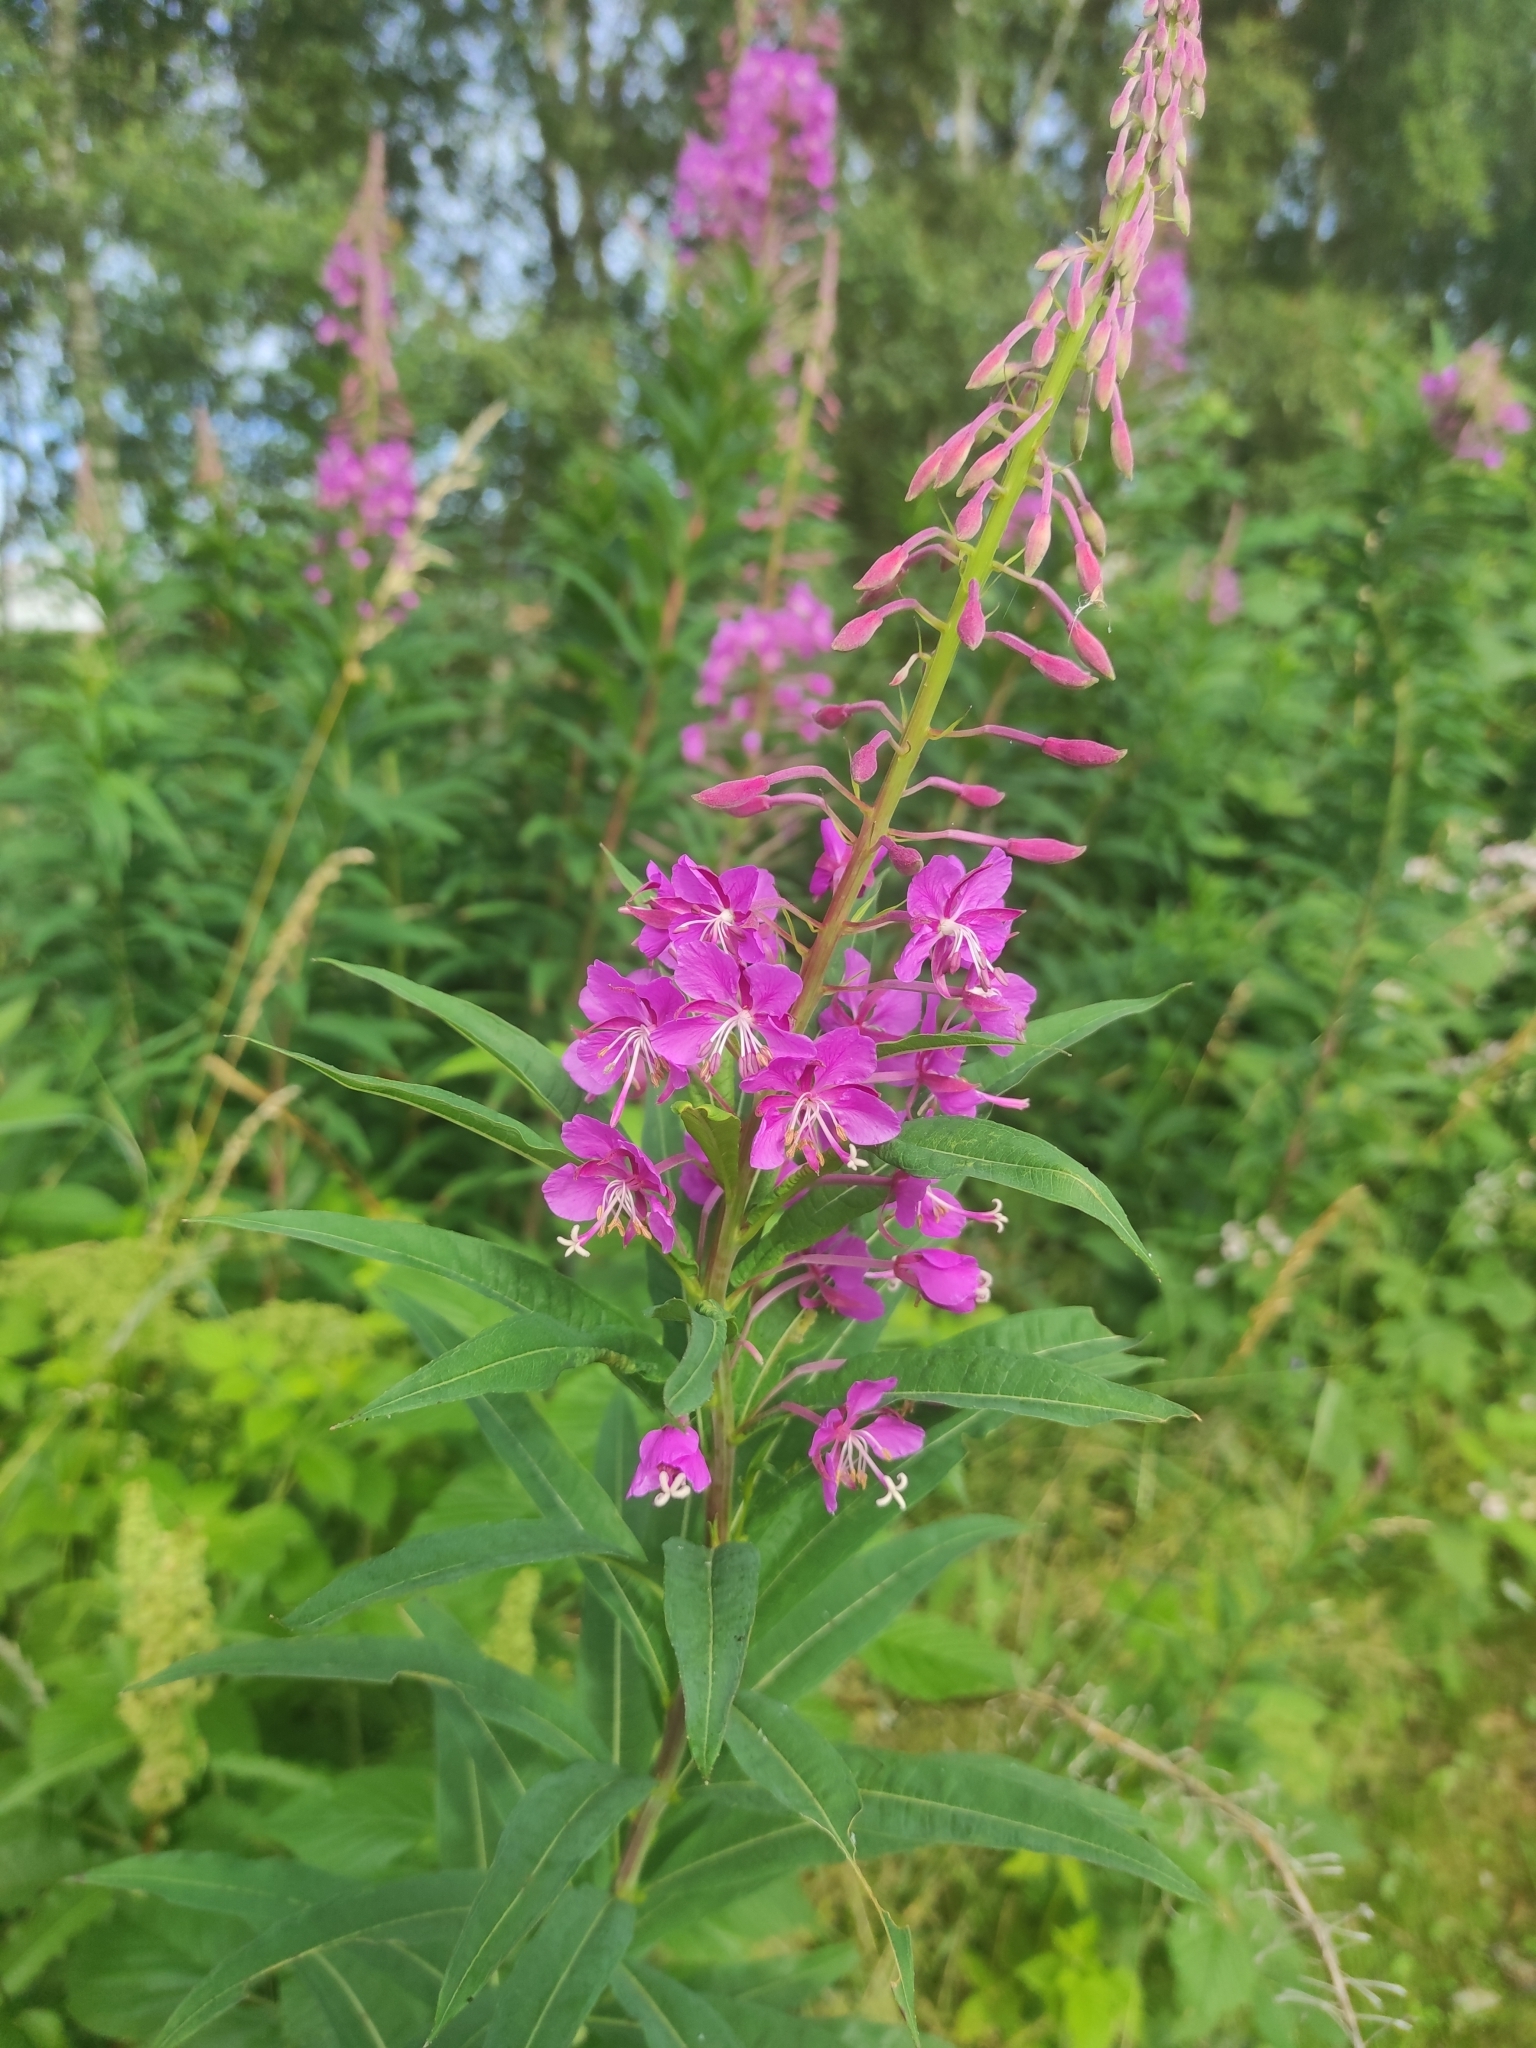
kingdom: Plantae
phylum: Tracheophyta
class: Magnoliopsida
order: Myrtales
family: Onagraceae
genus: Chamaenerion
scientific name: Chamaenerion angustifolium
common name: Fireweed
